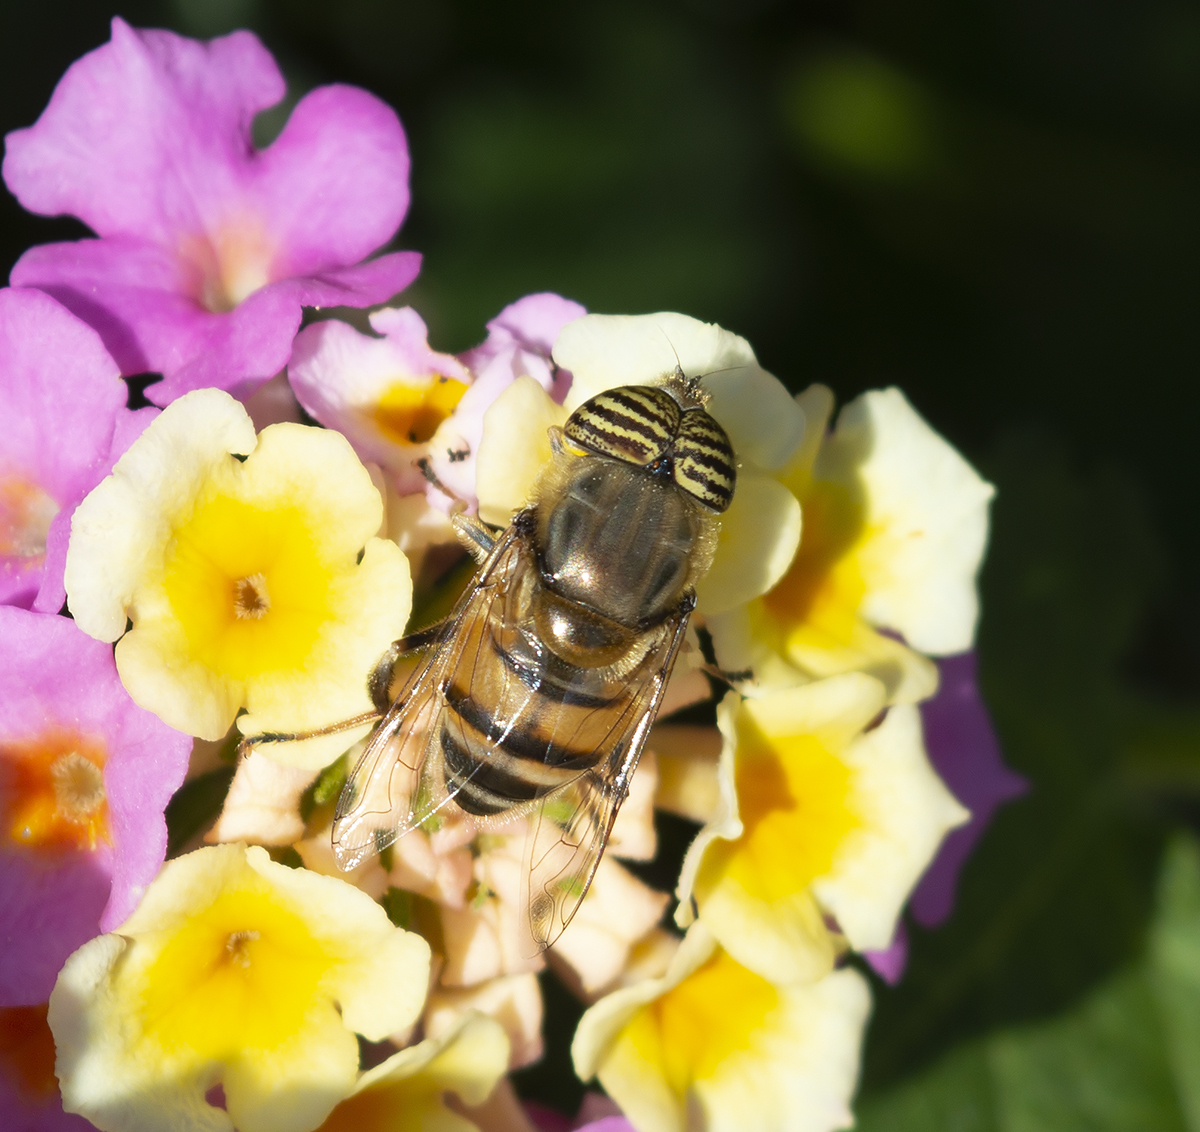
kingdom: Animalia
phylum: Arthropoda
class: Insecta
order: Diptera
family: Syrphidae
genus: Eristalinus
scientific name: Eristalinus taeniops
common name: Syrphid fly
